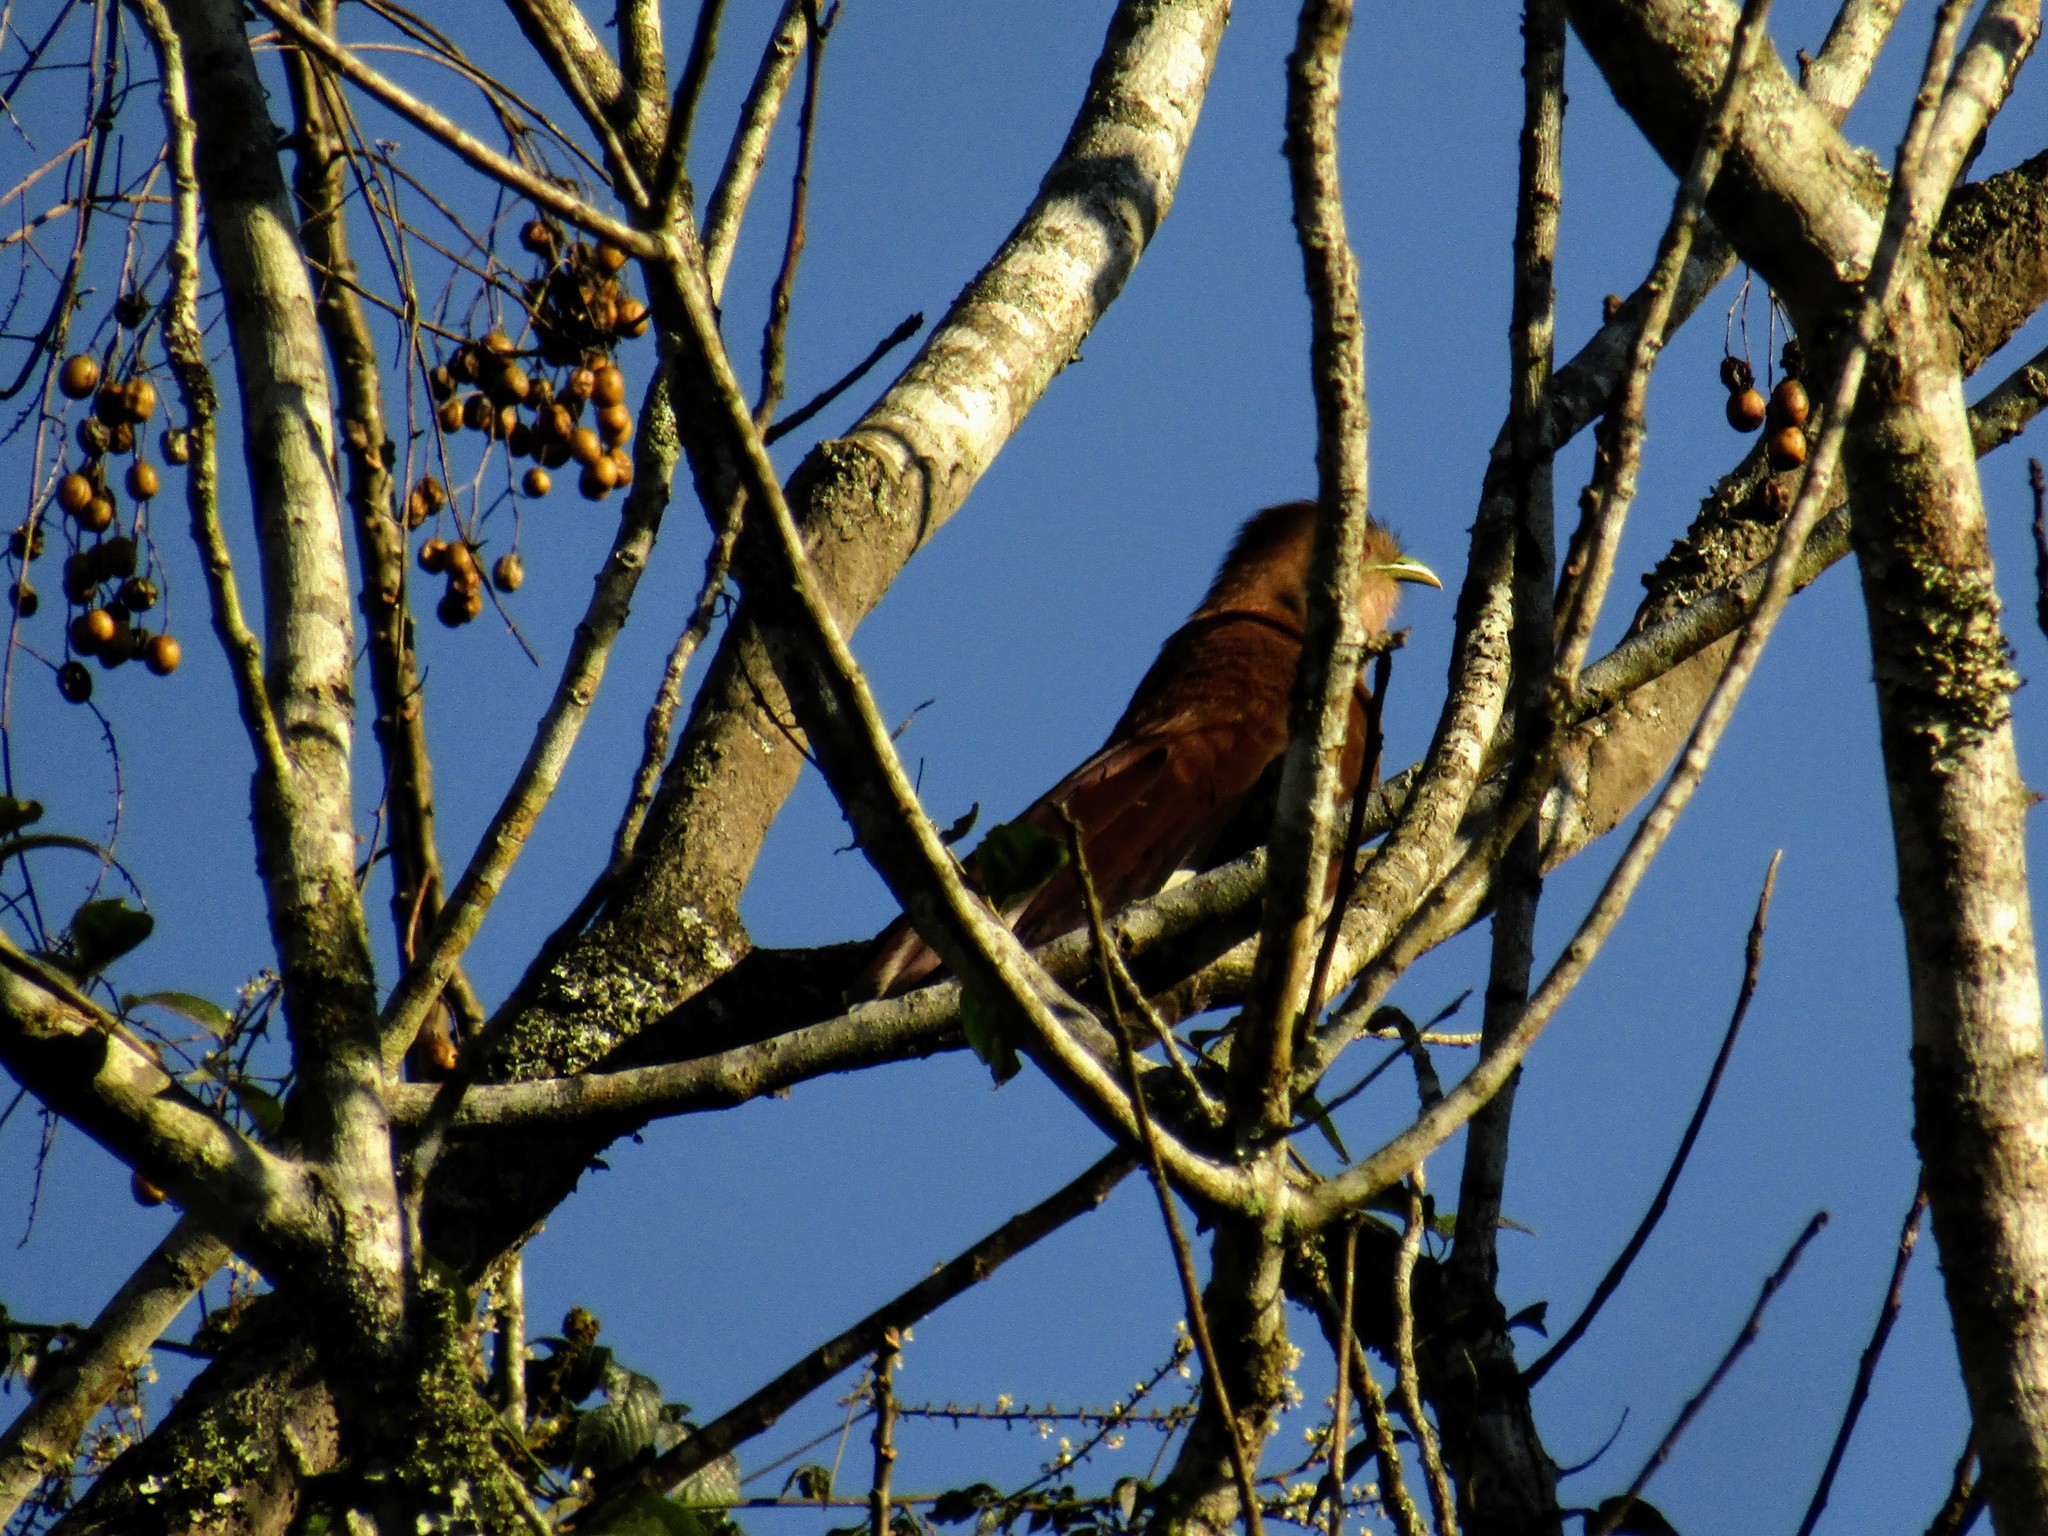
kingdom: Animalia
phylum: Chordata
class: Aves
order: Cuculiformes
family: Cuculidae
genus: Piaya
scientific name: Piaya cayana
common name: Squirrel cuckoo
